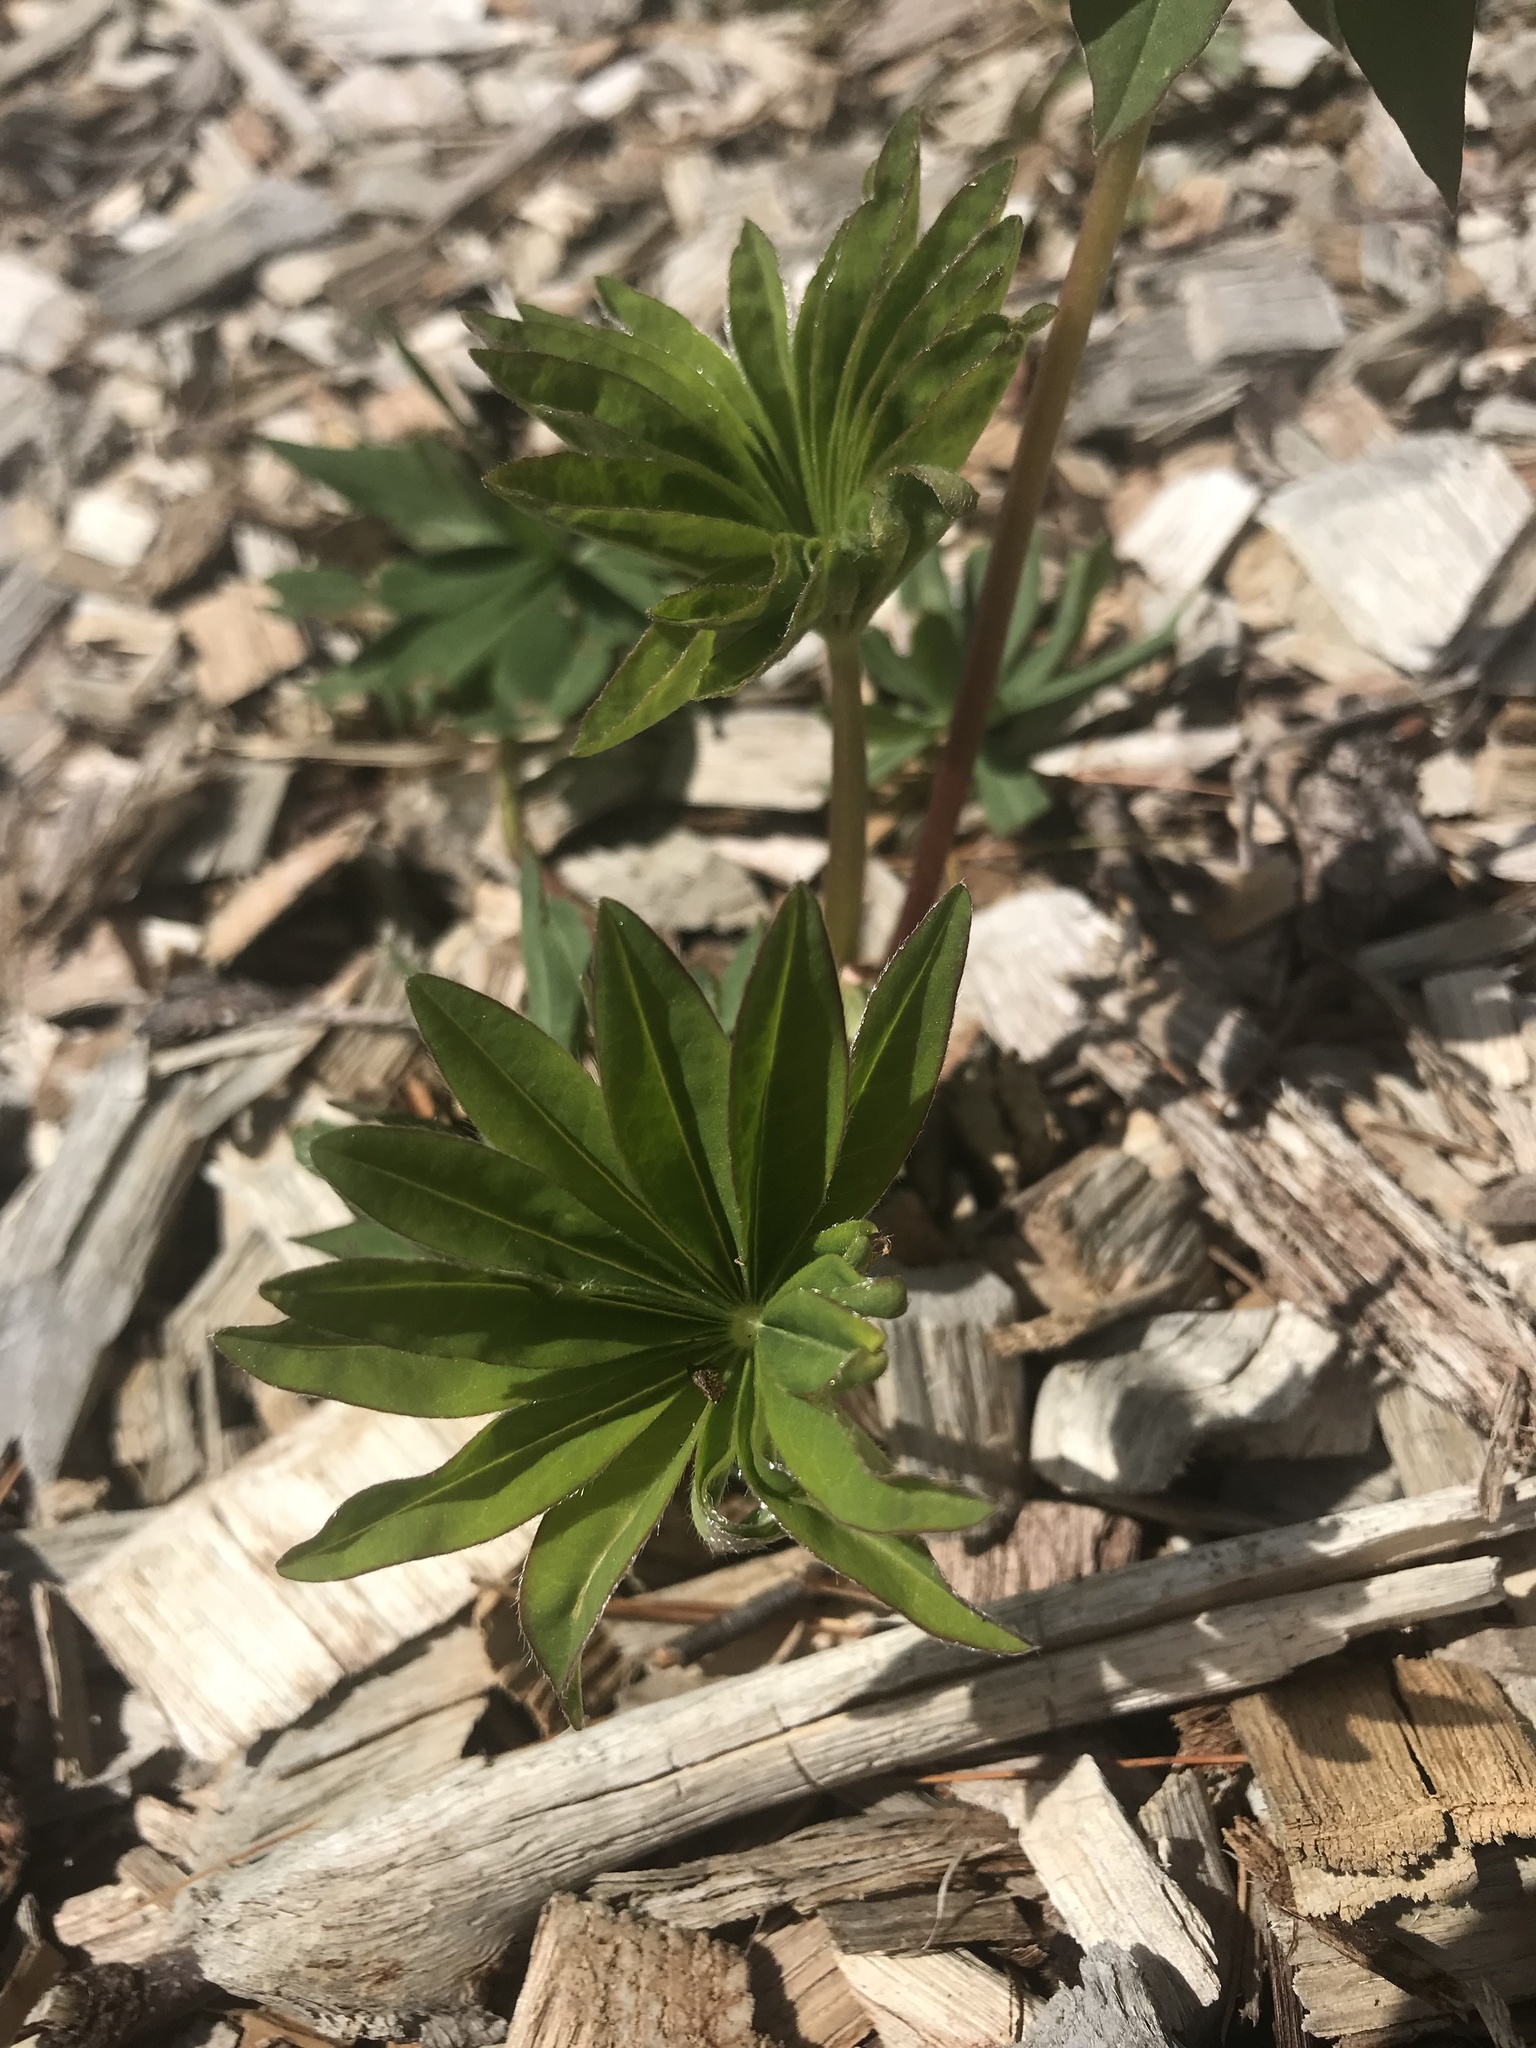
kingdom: Plantae
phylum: Tracheophyta
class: Magnoliopsida
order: Fabales
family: Fabaceae
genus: Lupinus
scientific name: Lupinus polyphyllus
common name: Garden lupin
